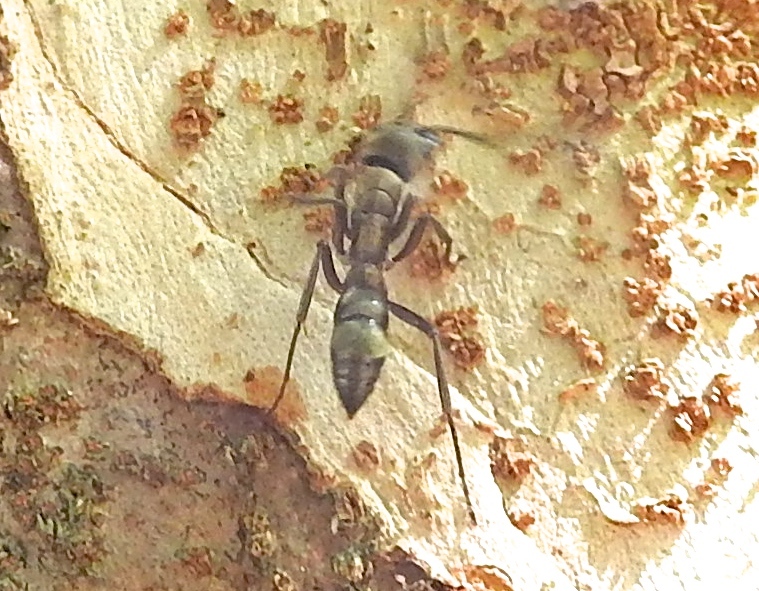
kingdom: Animalia
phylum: Arthropoda
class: Insecta
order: Hymenoptera
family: Formicidae
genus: Pachycondyla
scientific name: Pachycondyla villosa
